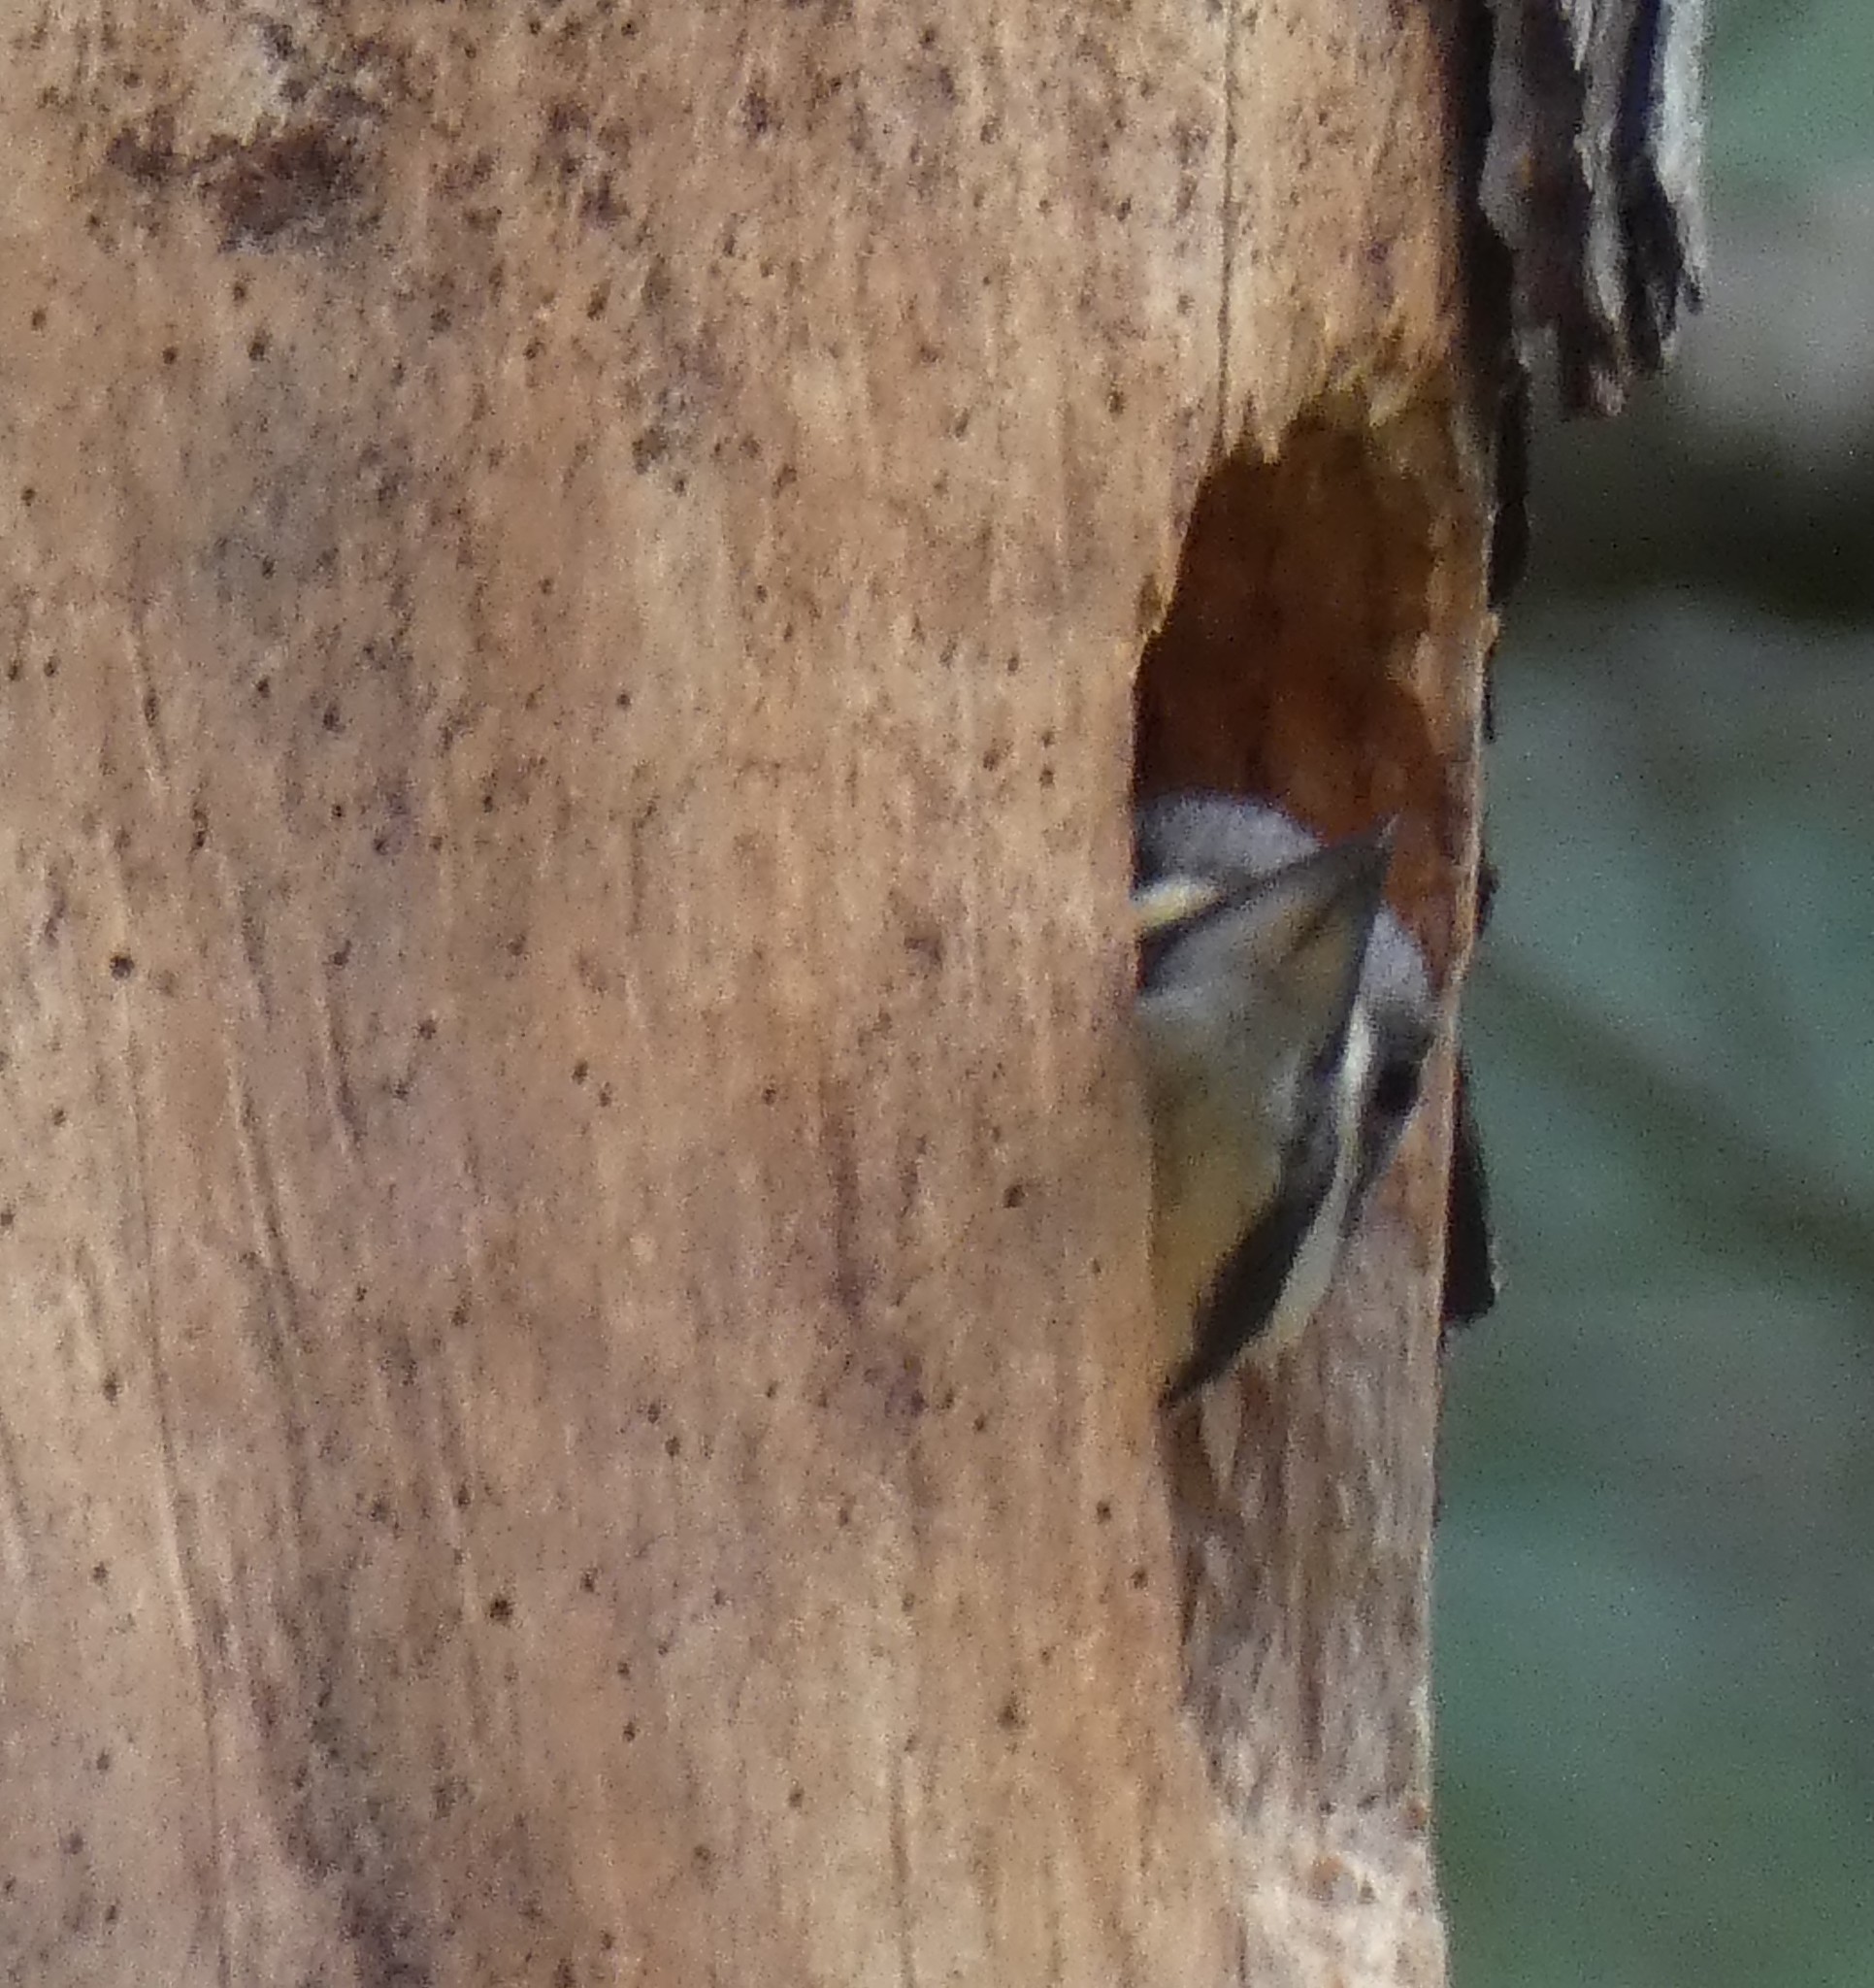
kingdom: Animalia
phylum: Chordata
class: Aves
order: Piciformes
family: Picidae
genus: Dryocopus
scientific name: Dryocopus pileatus
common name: Pileated woodpecker
